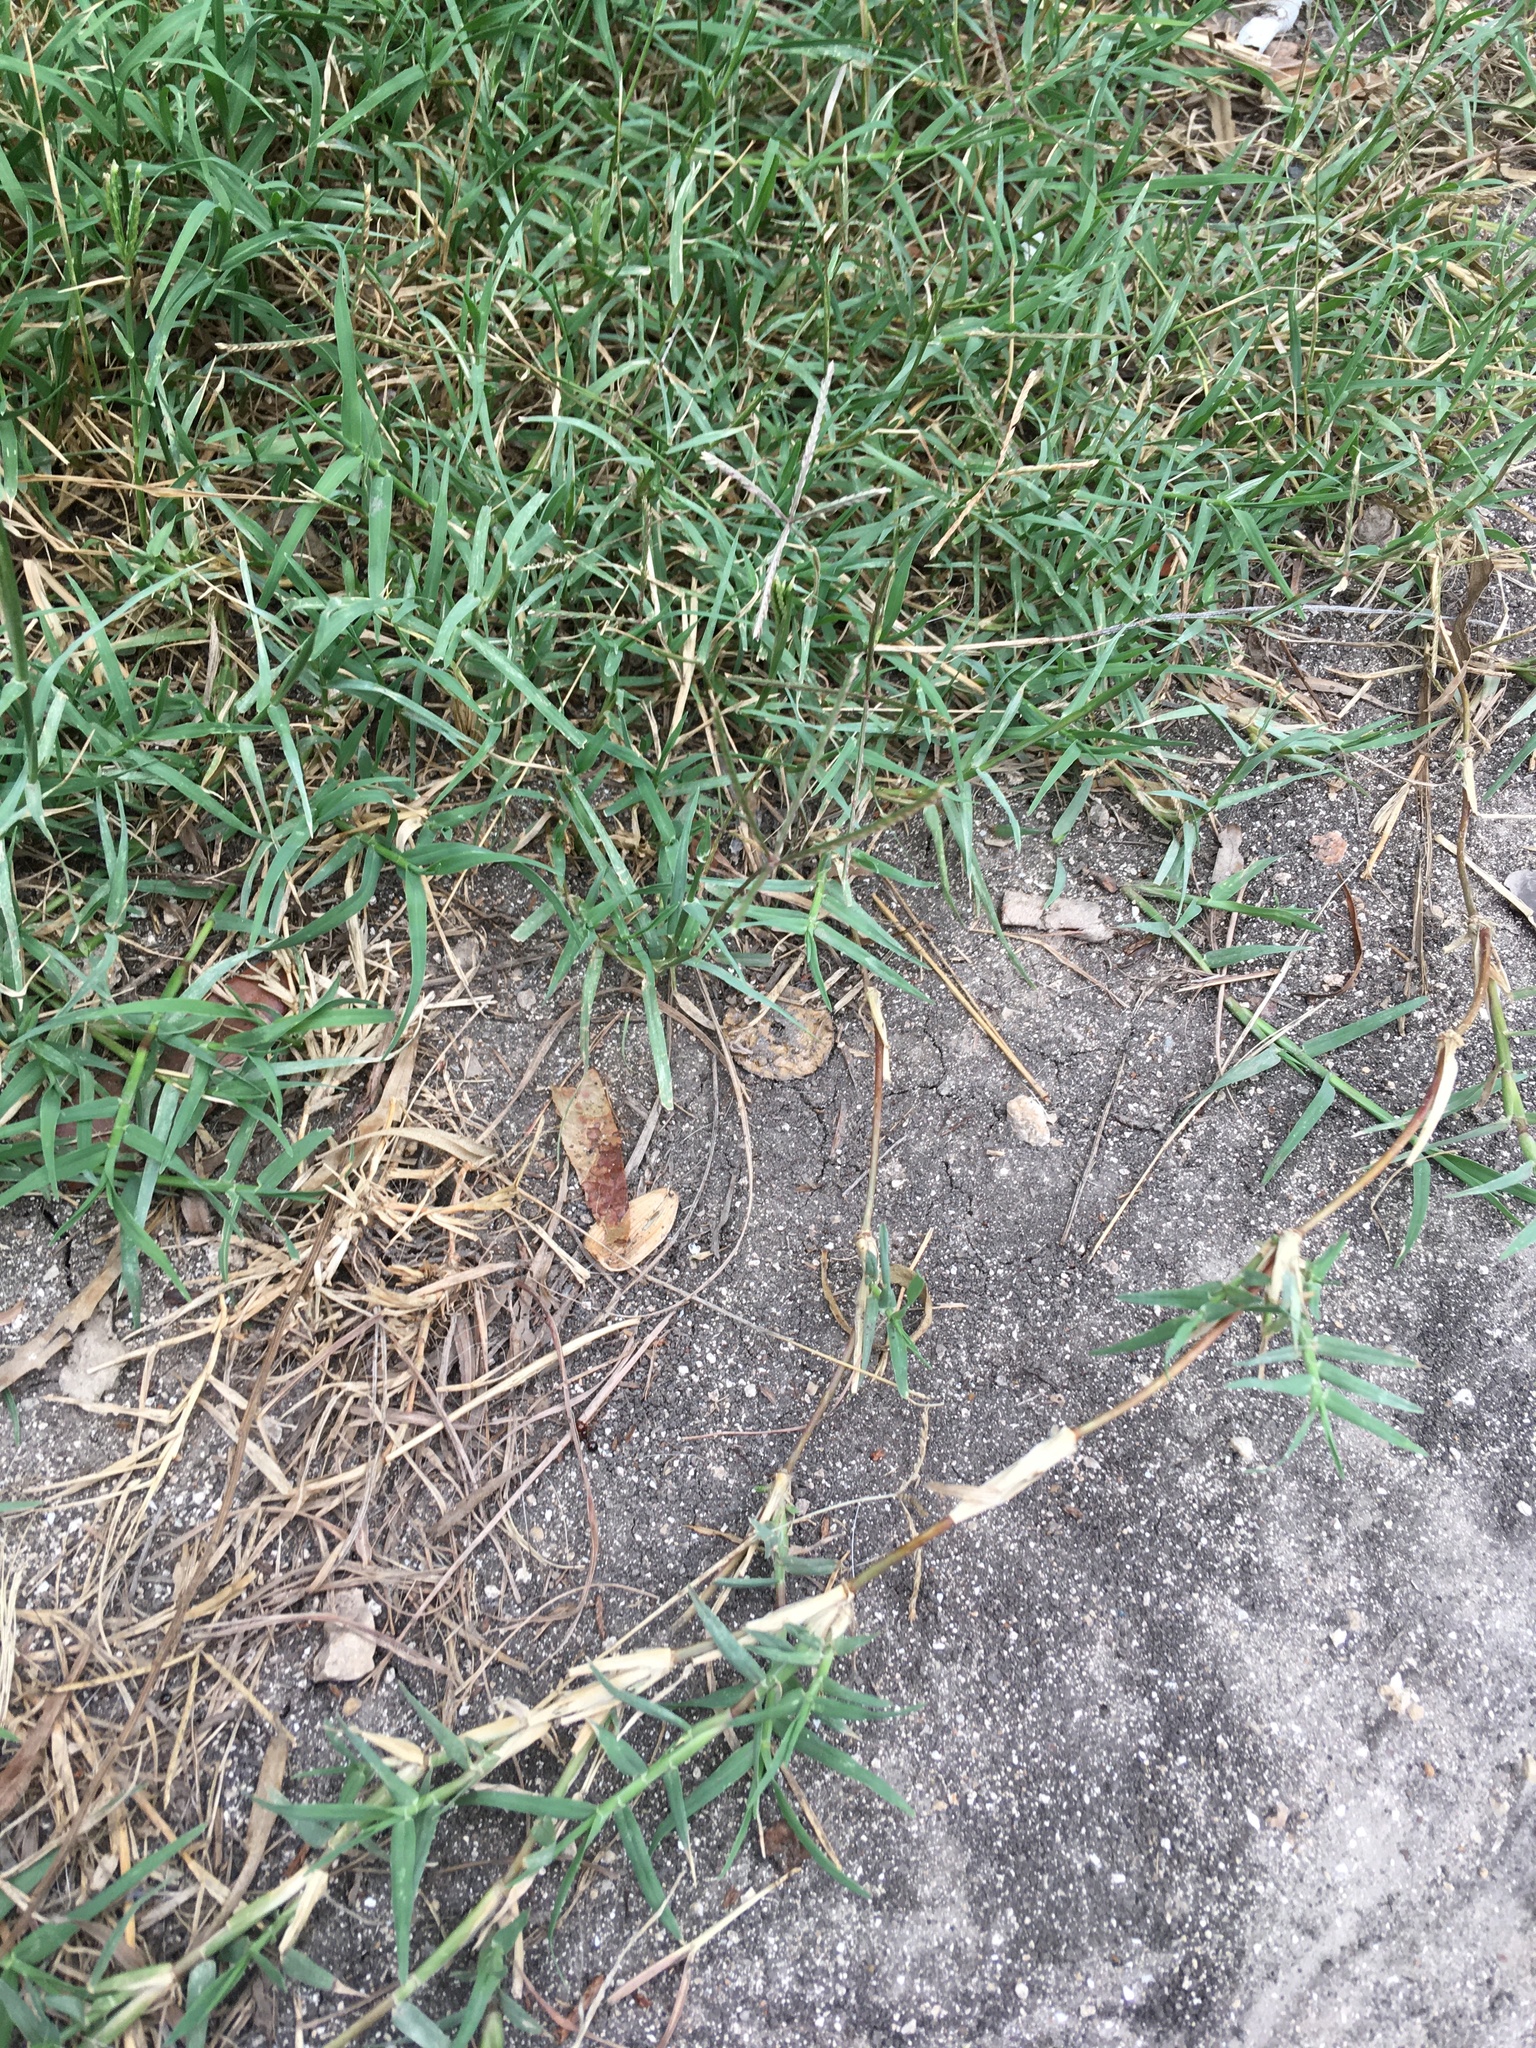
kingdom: Plantae
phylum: Tracheophyta
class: Liliopsida
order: Poales
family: Poaceae
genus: Cynodon
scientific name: Cynodon dactylon
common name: Bermuda grass
